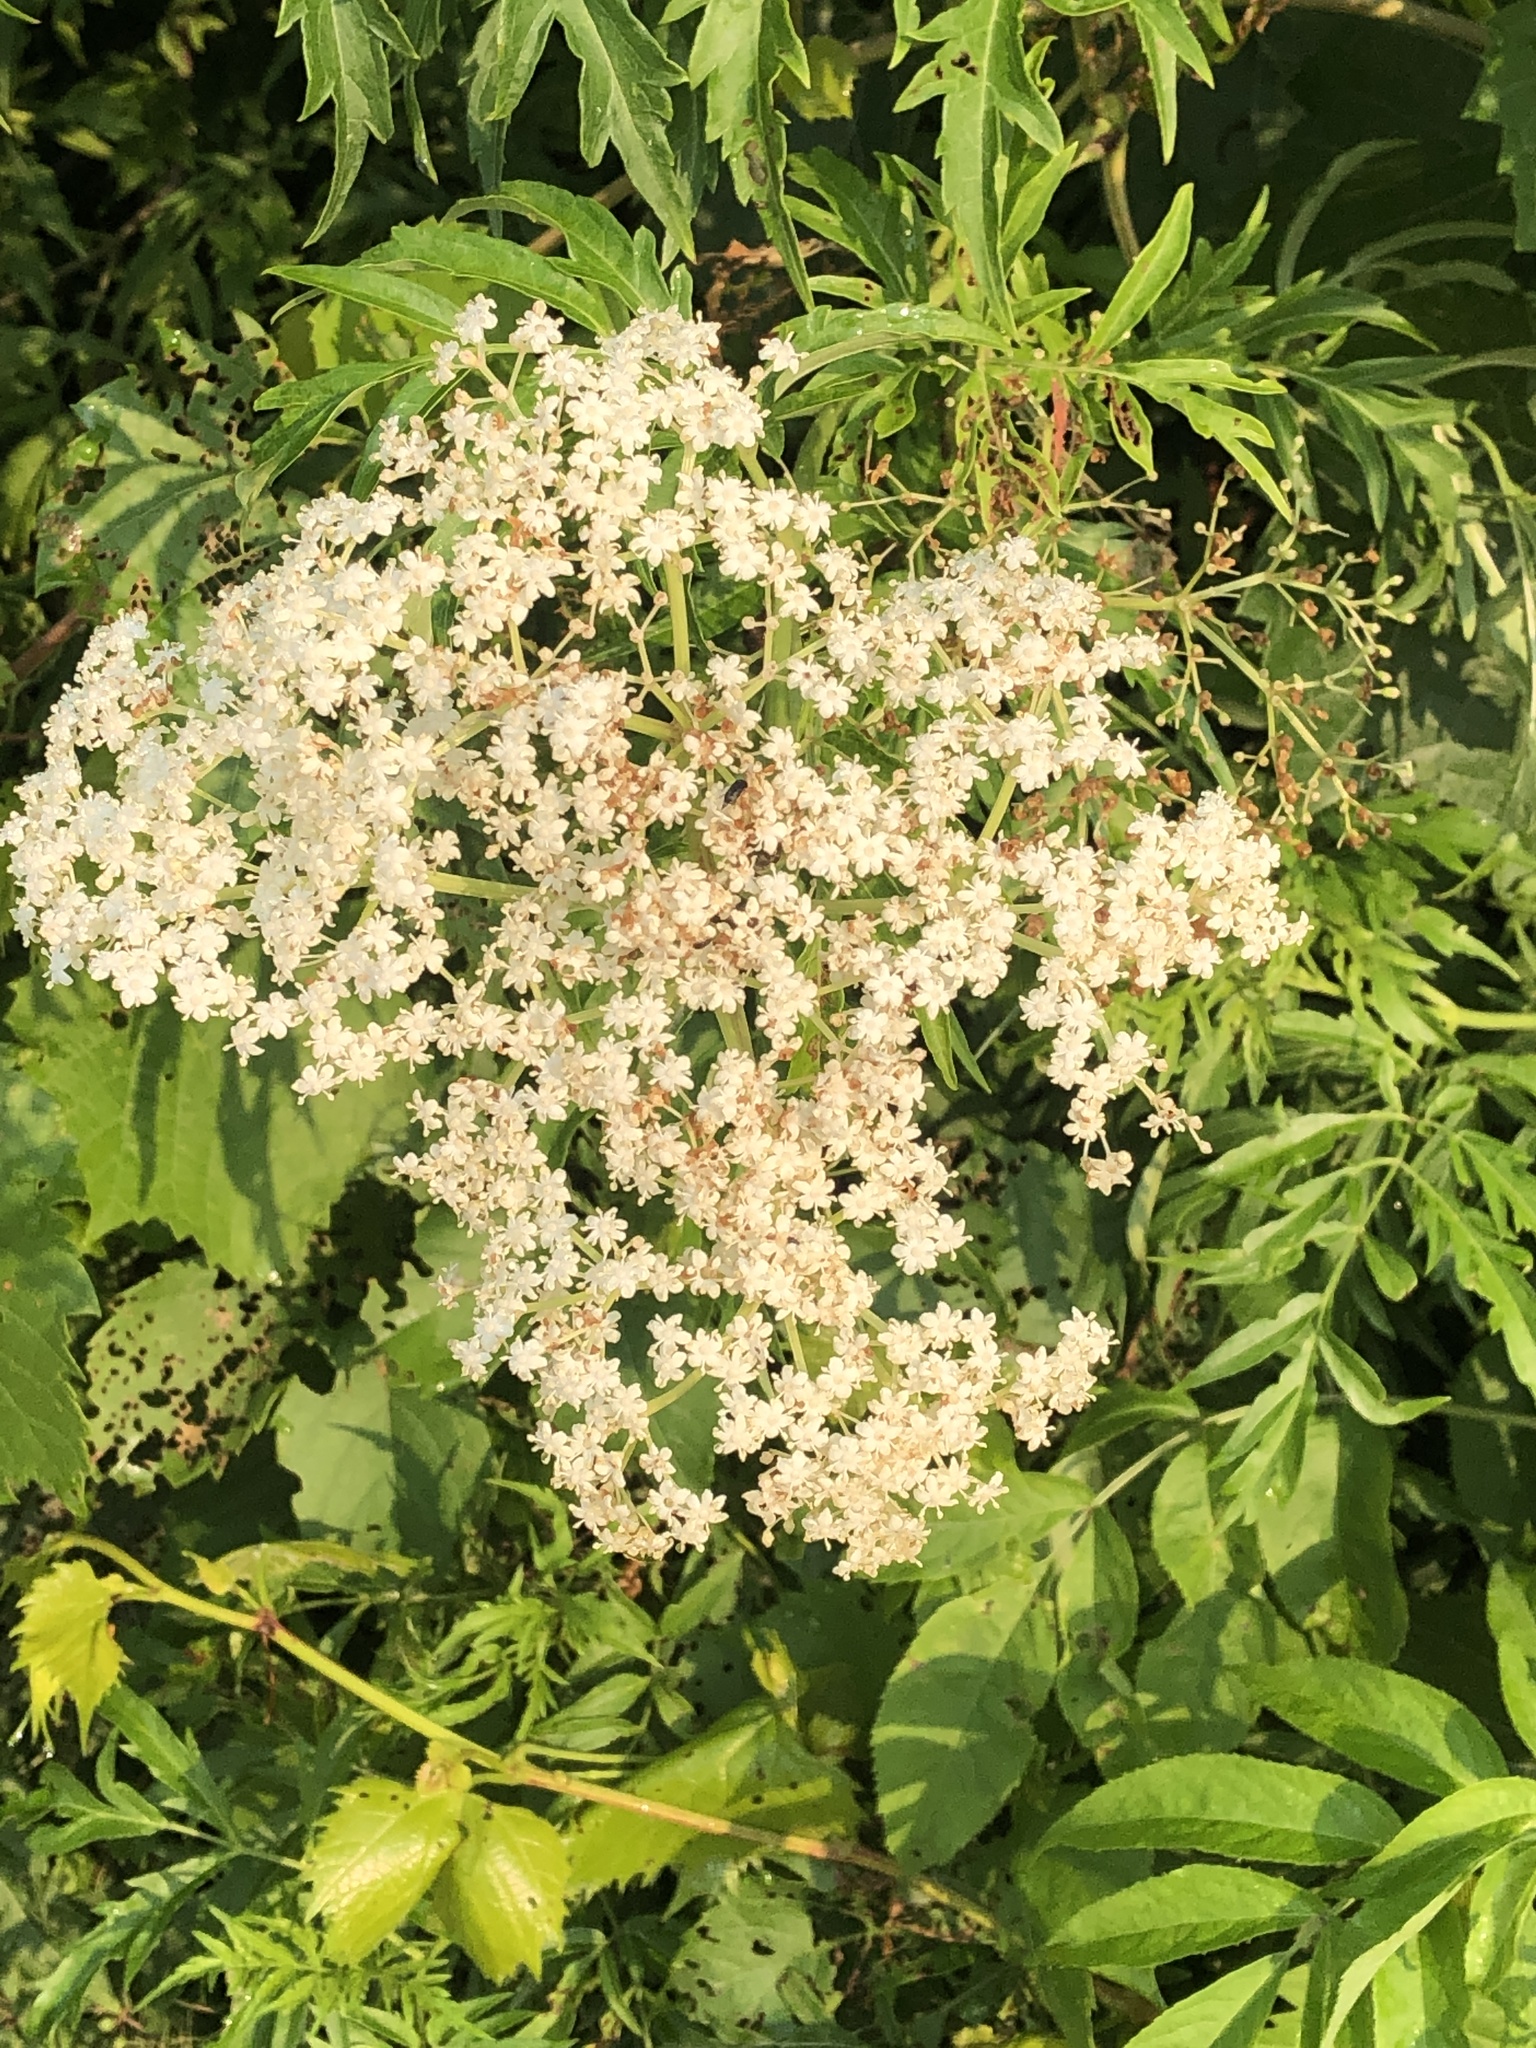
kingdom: Plantae
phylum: Tracheophyta
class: Magnoliopsida
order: Dipsacales
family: Viburnaceae
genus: Sambucus
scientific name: Sambucus canadensis
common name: American elder
